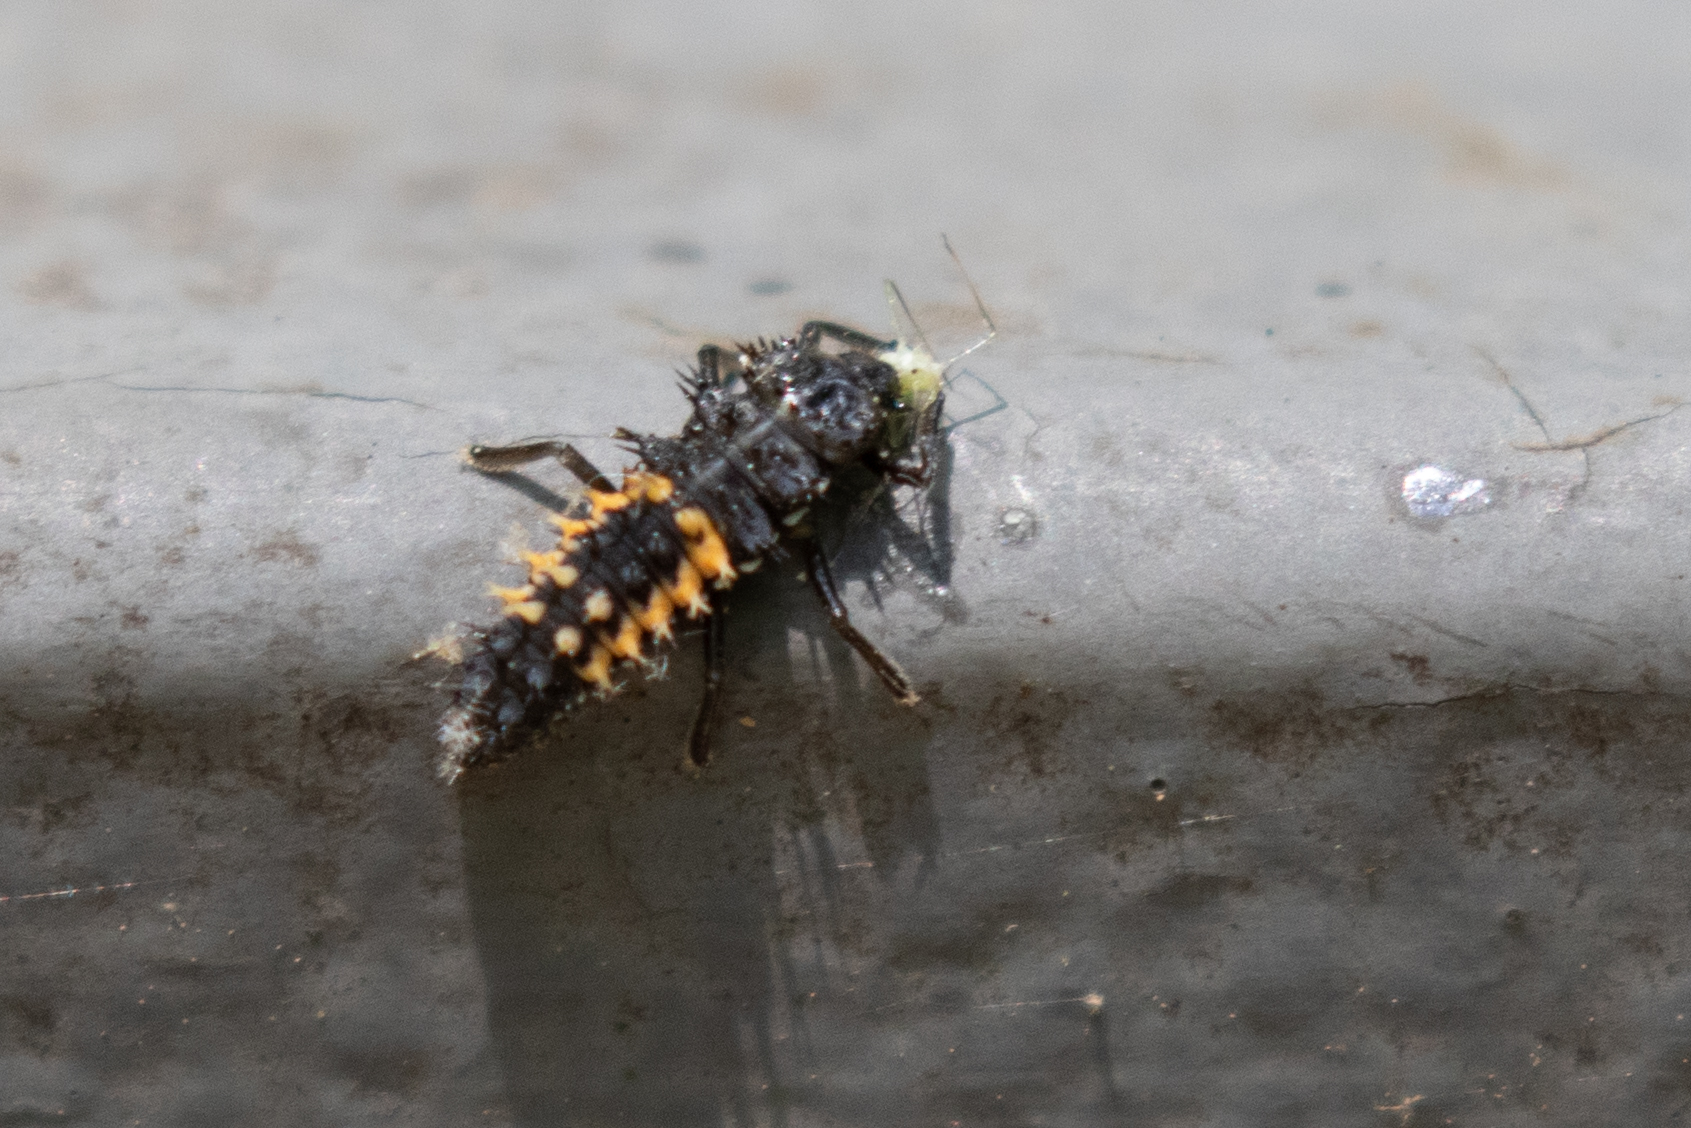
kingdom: Animalia
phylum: Arthropoda
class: Insecta
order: Coleoptera
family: Coccinellidae
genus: Harmonia
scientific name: Harmonia axyridis
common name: Harlequin ladybird
